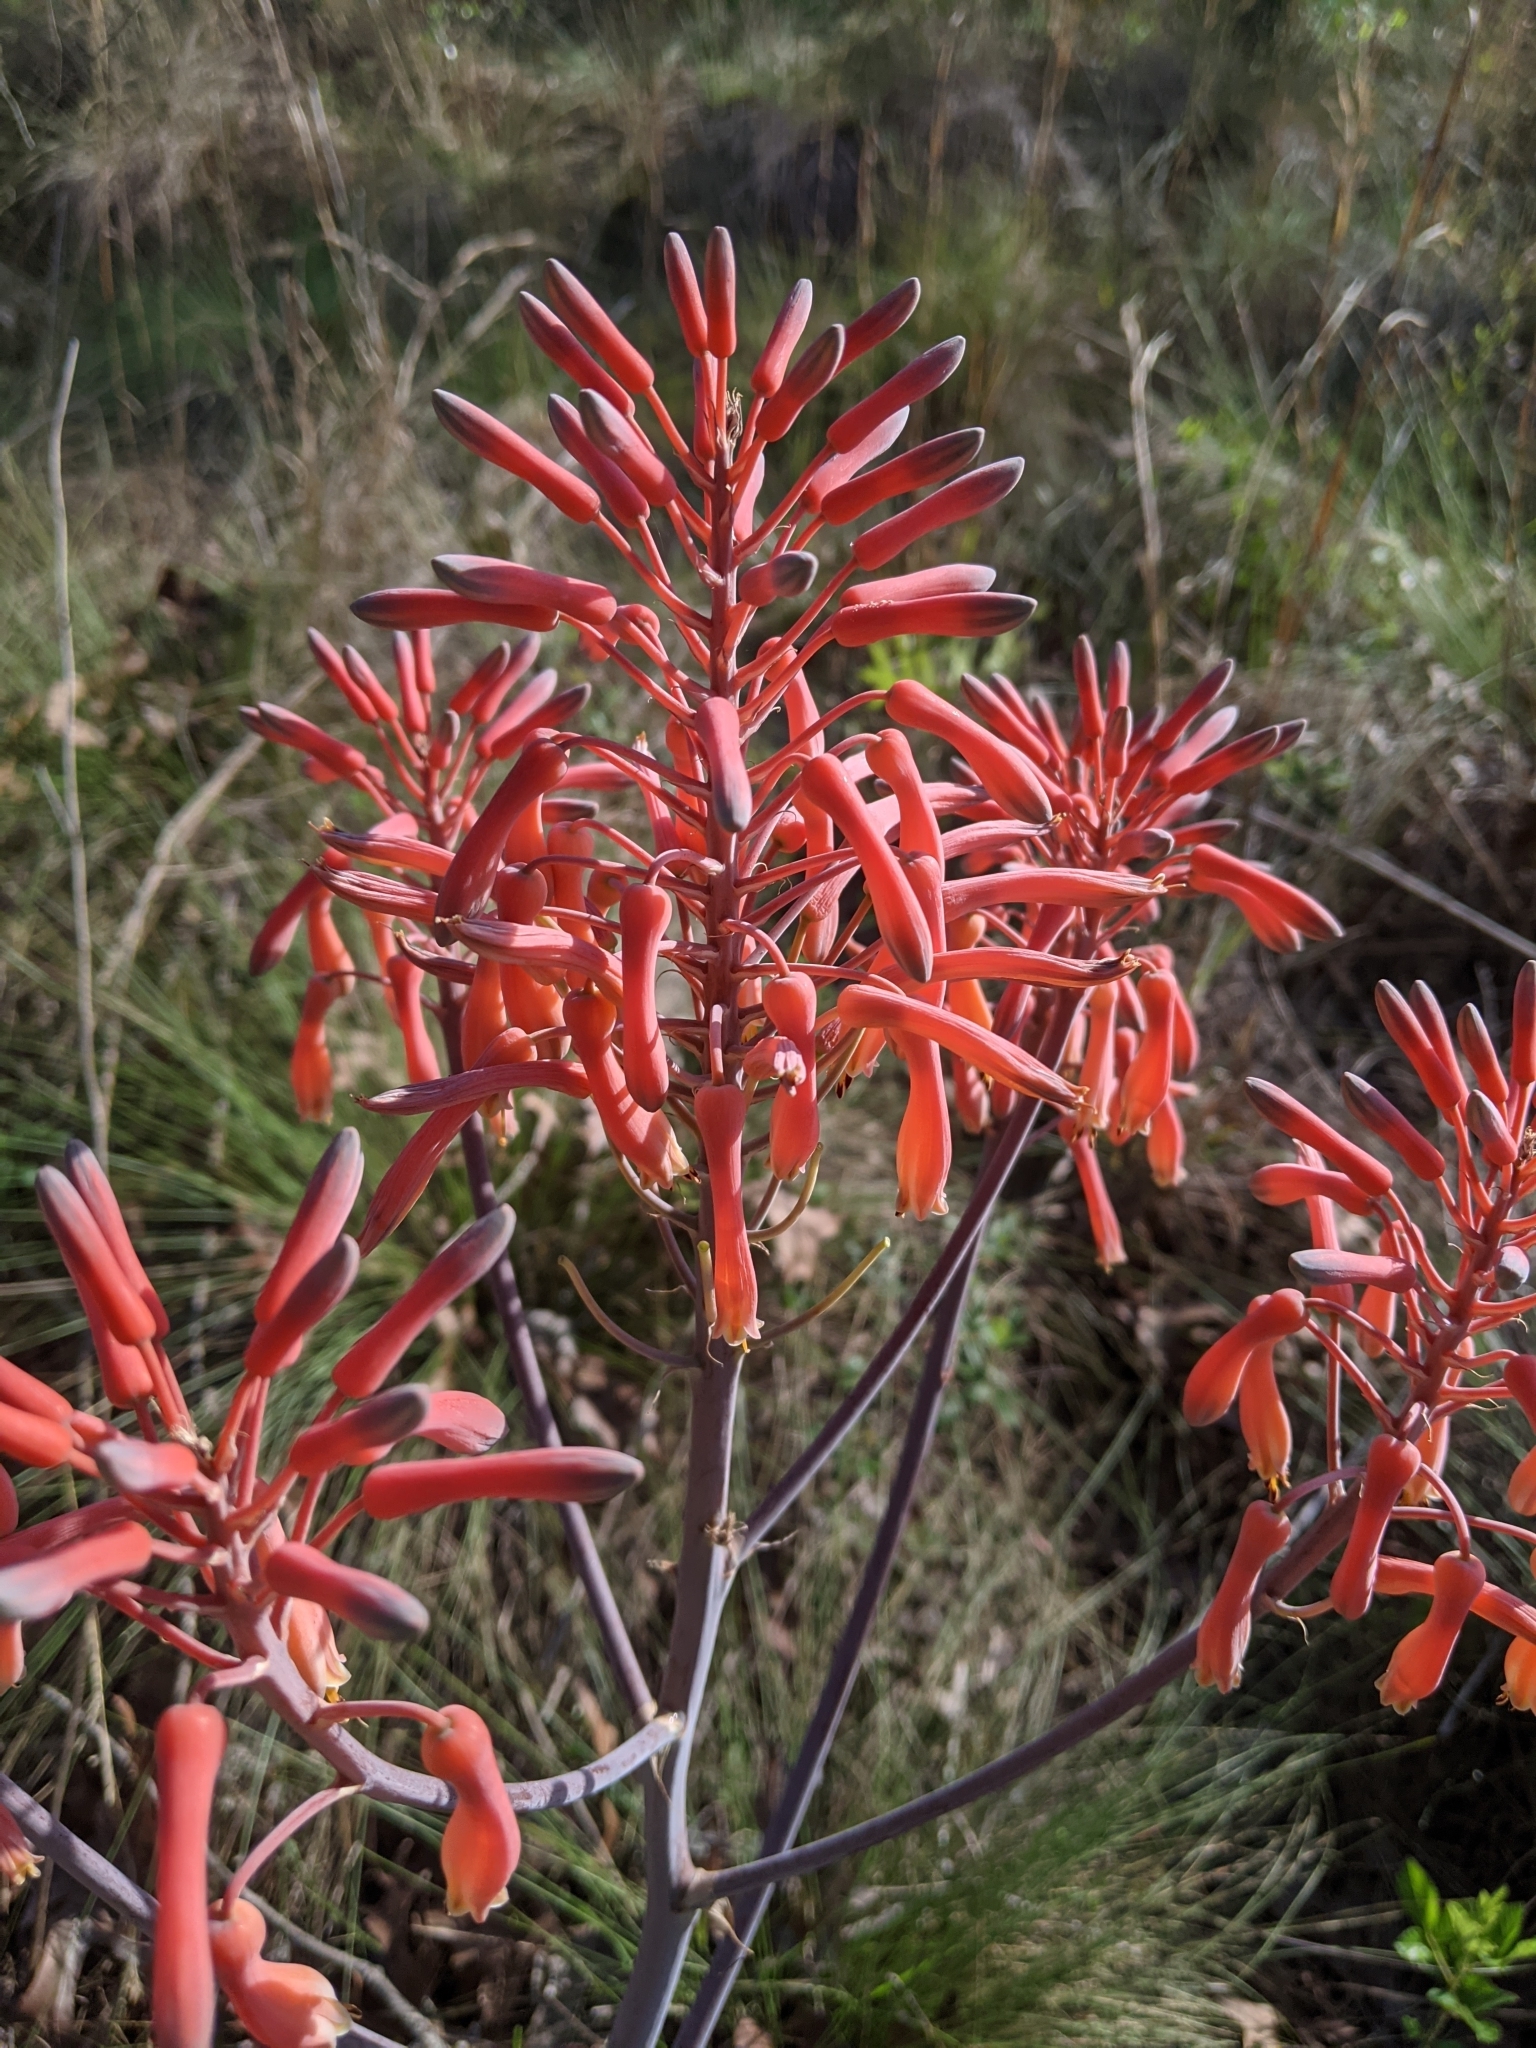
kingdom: Plantae
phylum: Tracheophyta
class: Liliopsida
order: Asparagales
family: Asphodelaceae
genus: Aloe
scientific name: Aloe maculata
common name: Broadleaf aloe
